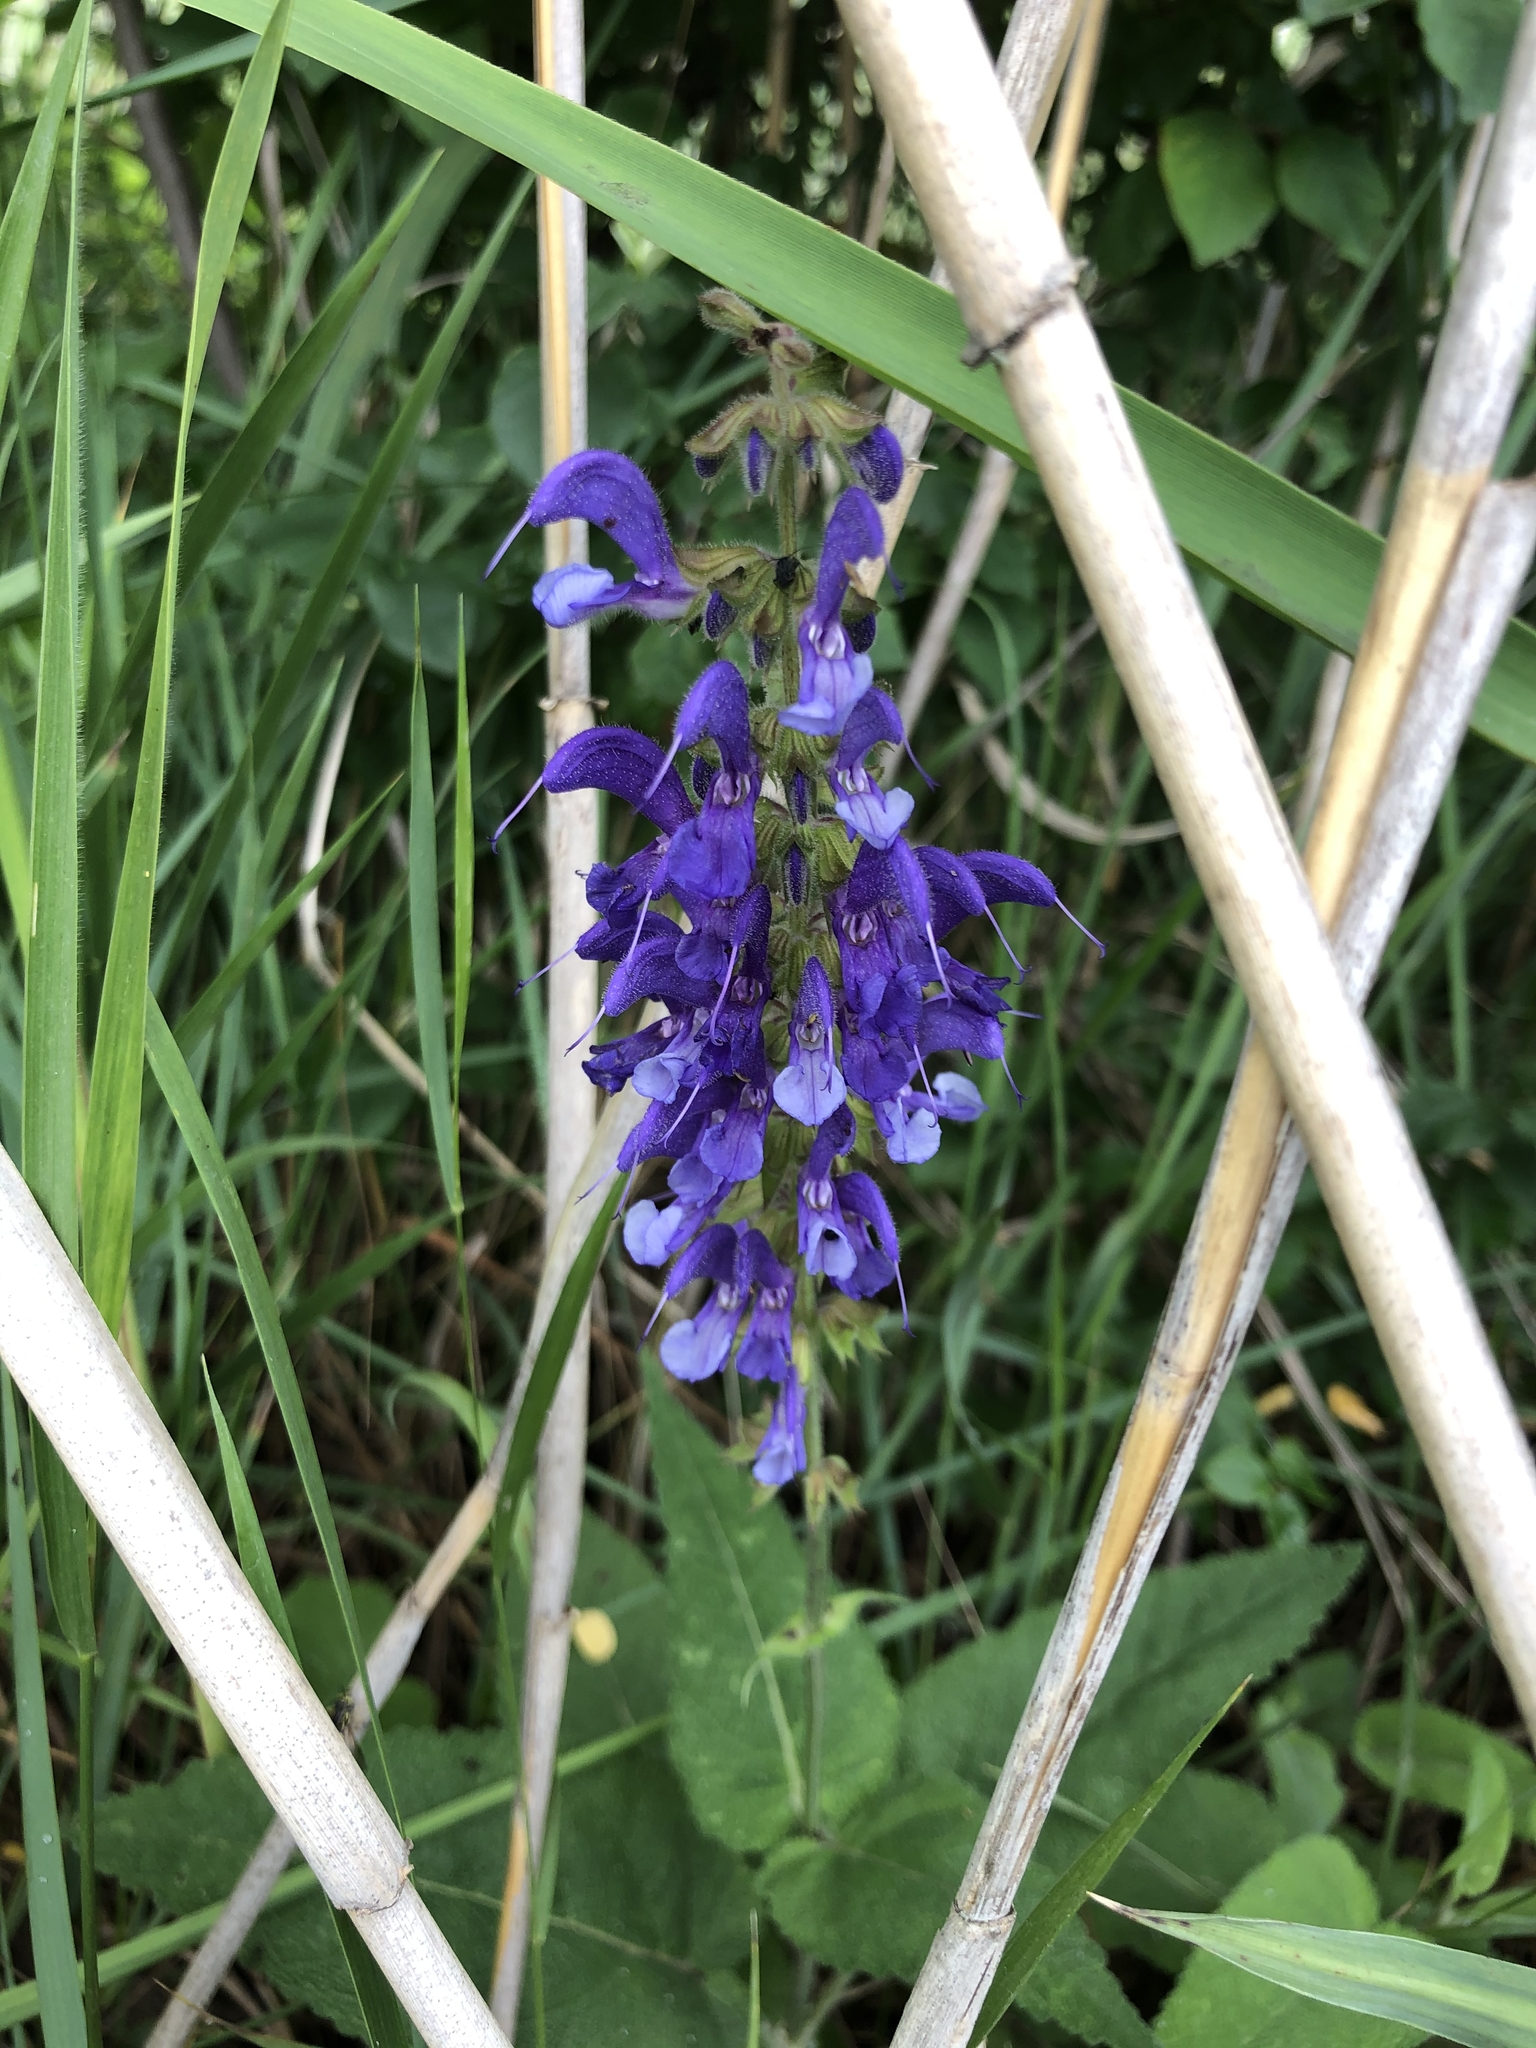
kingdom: Plantae
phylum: Tracheophyta
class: Magnoliopsida
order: Lamiales
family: Lamiaceae
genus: Salvia
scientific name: Salvia pratensis
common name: Meadow sage
